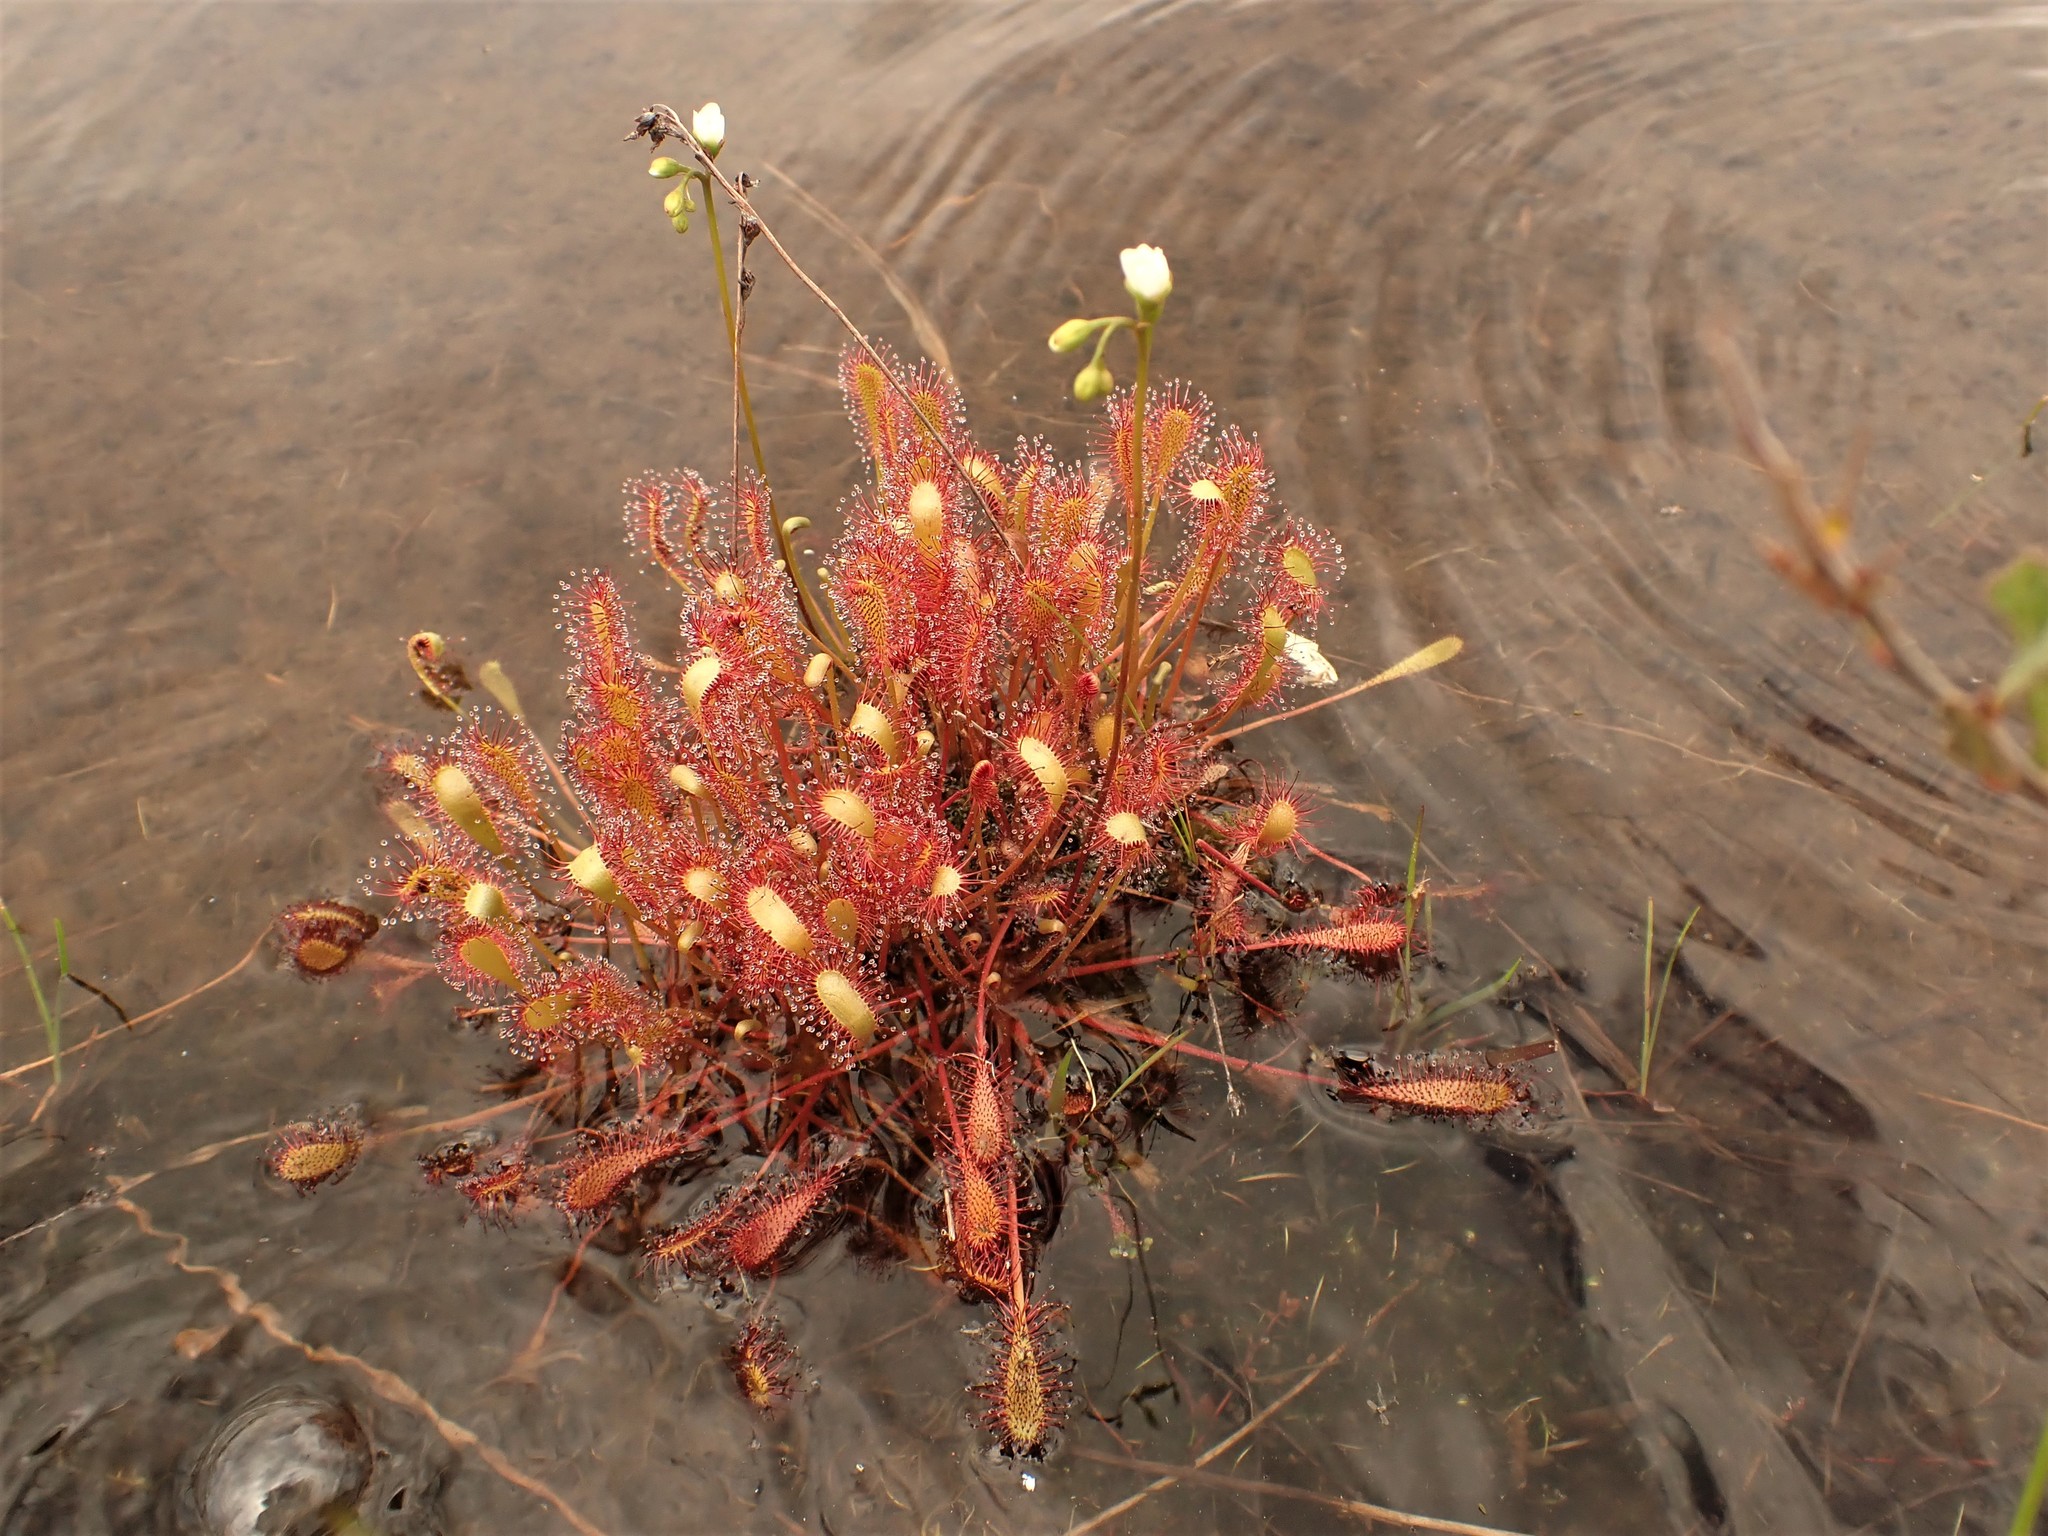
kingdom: Plantae
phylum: Tracheophyta
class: Magnoliopsida
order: Caryophyllales
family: Droseraceae
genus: Drosera
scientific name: Drosera anglica
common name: Great sundew
